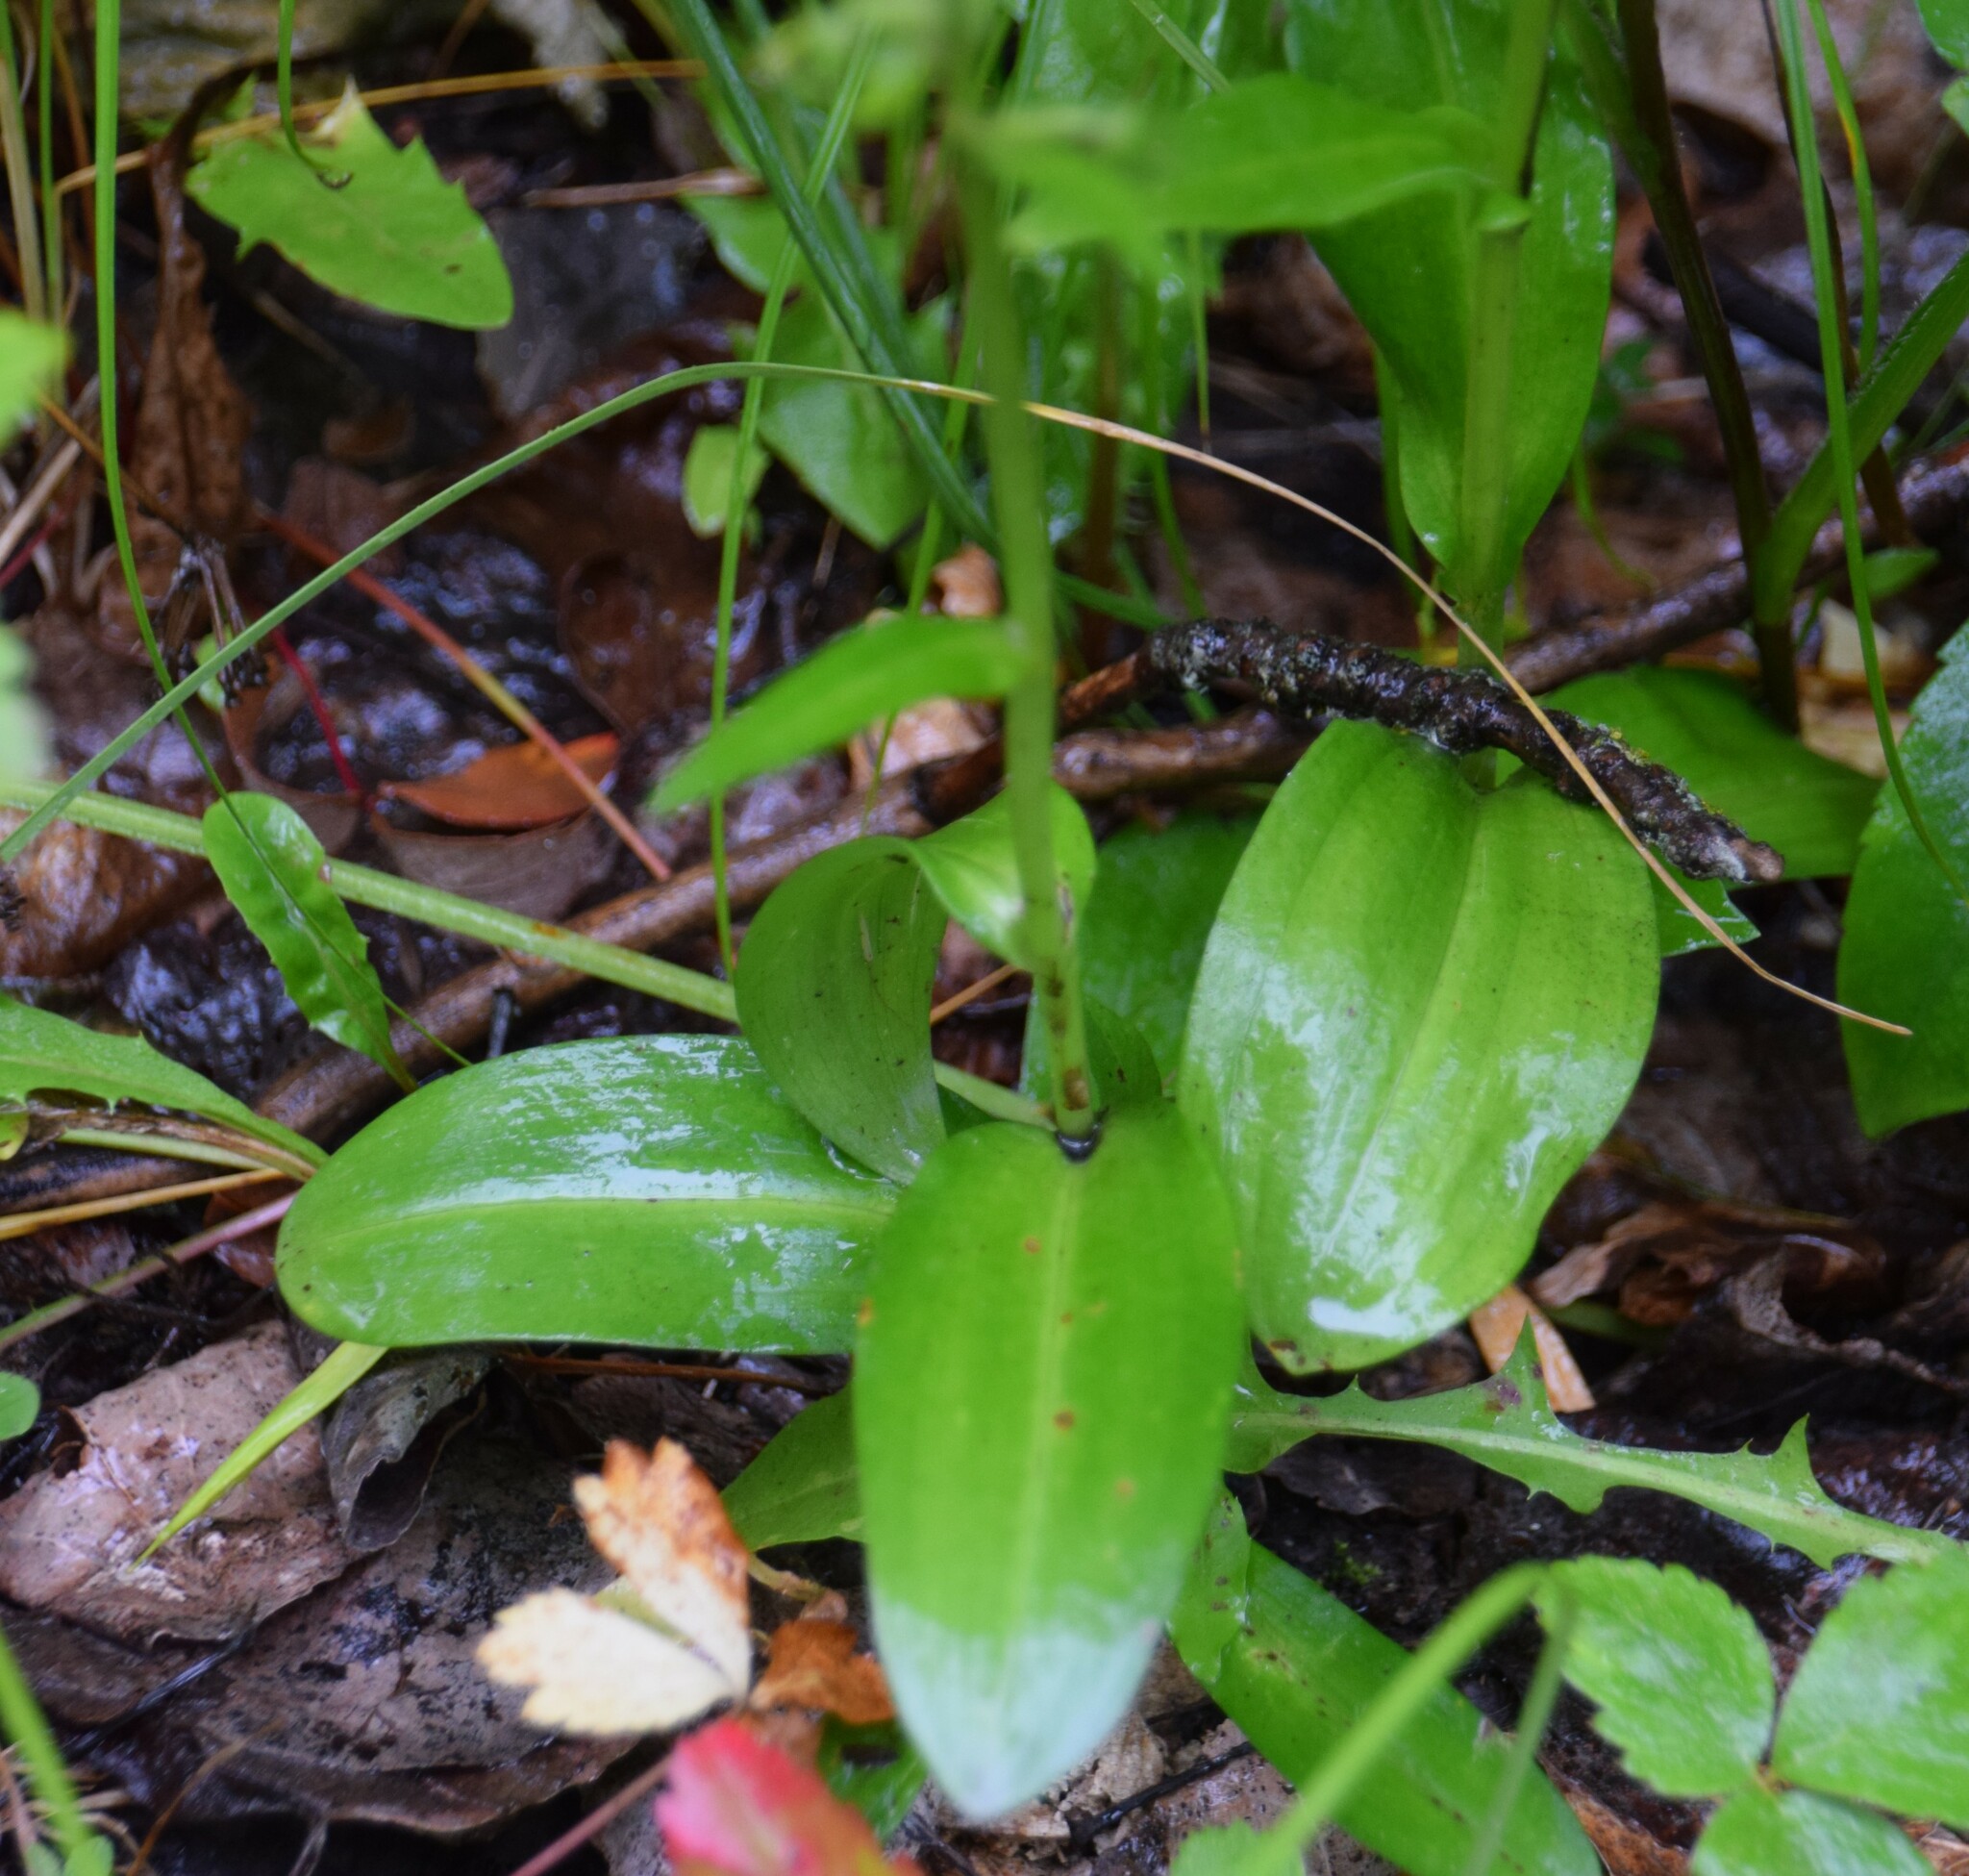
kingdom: Plantae
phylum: Tracheophyta
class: Liliopsida
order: Asparagales
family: Orchidaceae
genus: Dactylorhiza
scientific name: Dactylorhiza viridis
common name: Longbract frog orchid
